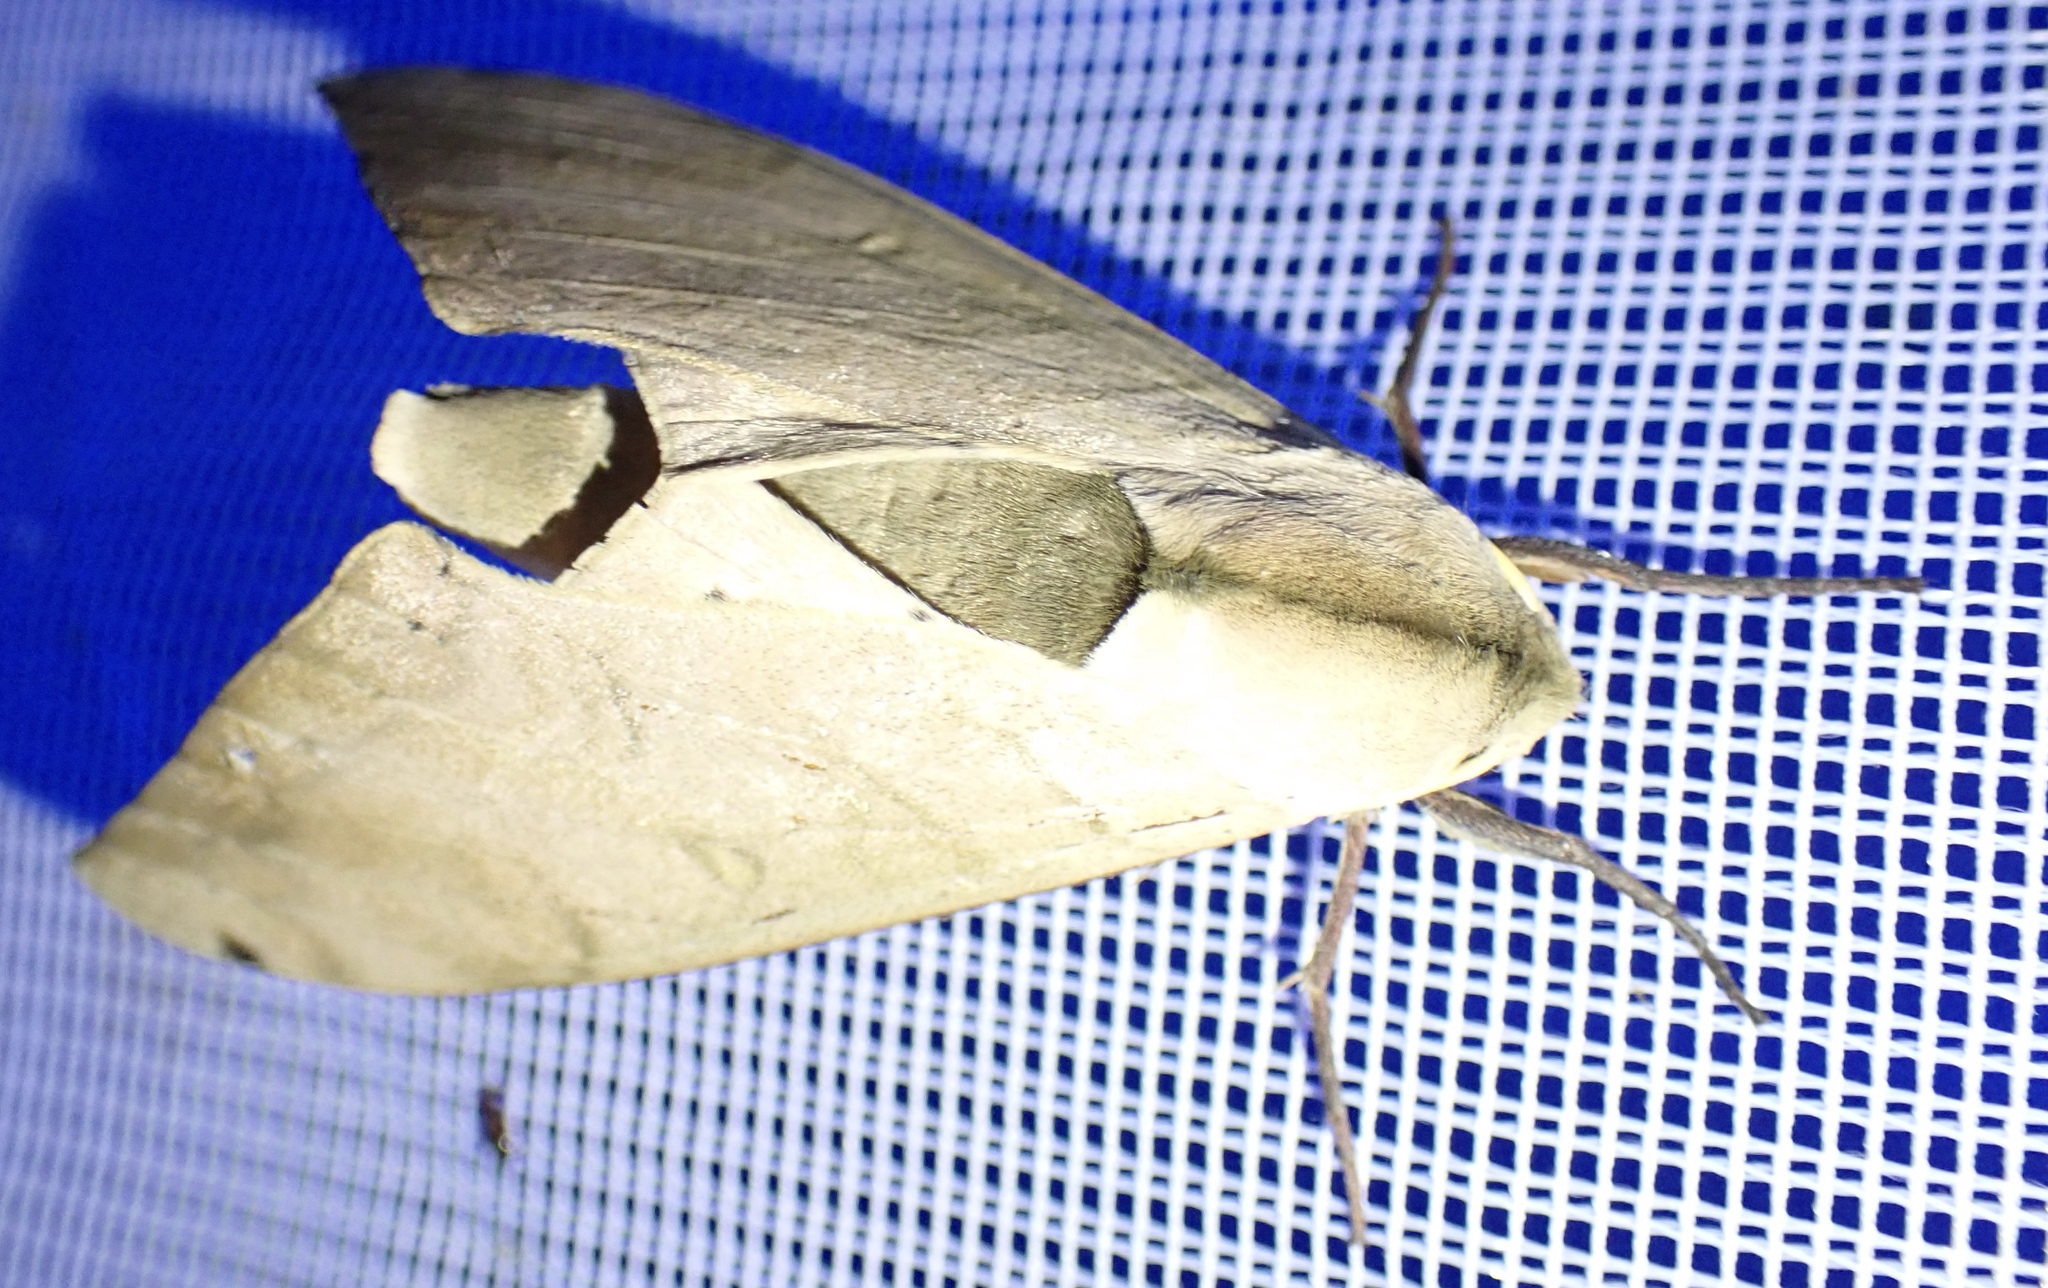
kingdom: Animalia
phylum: Arthropoda
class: Insecta
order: Lepidoptera
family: Sphingidae
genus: Pseudoclanis
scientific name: Pseudoclanis occidentalis
